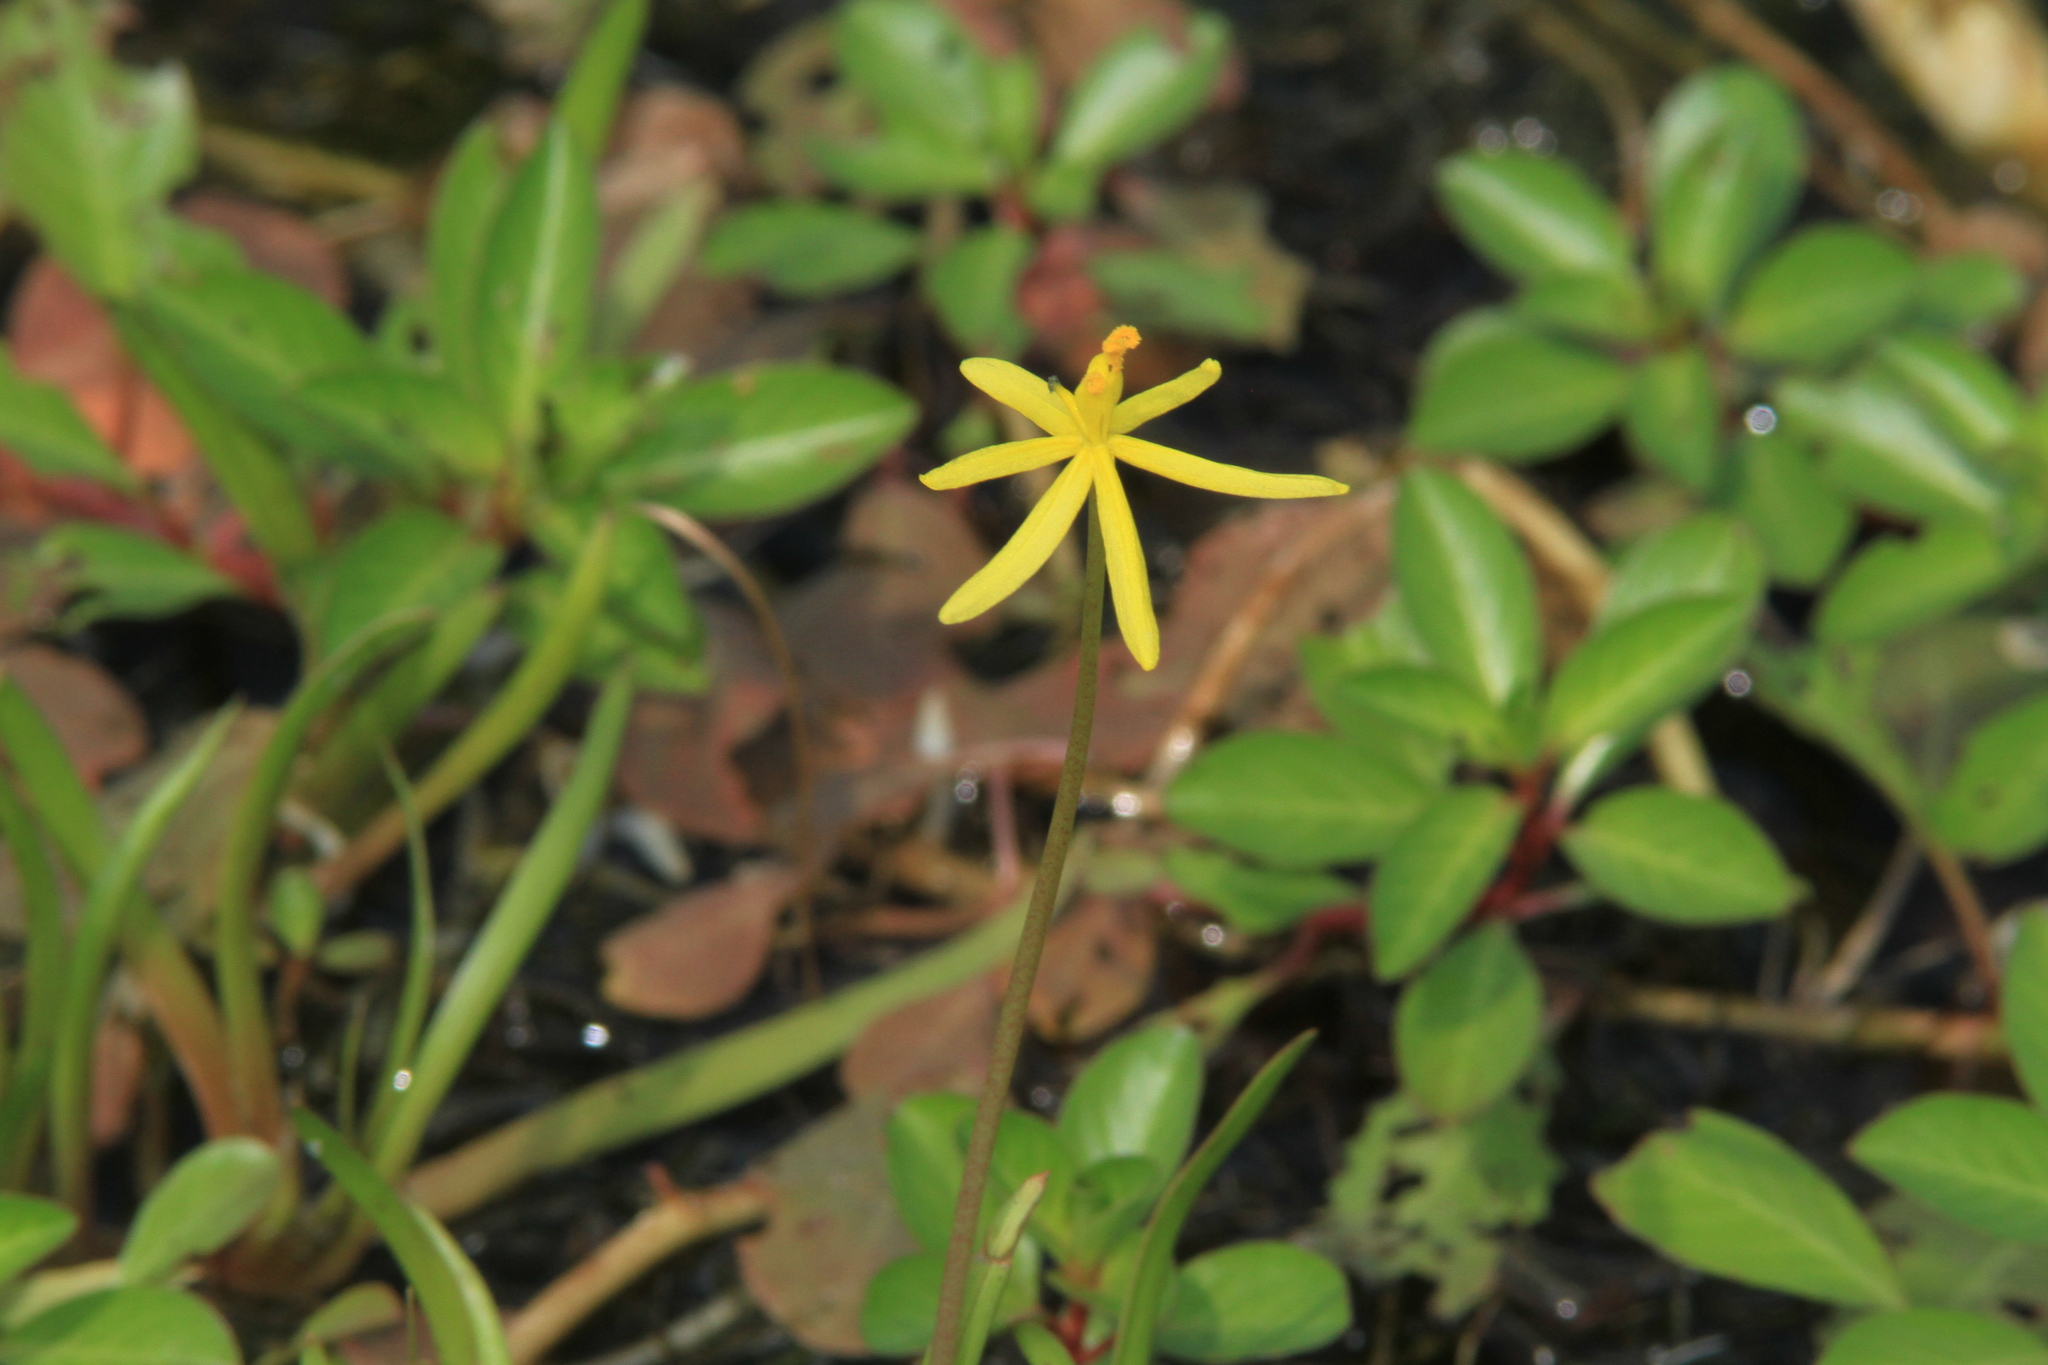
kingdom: Plantae
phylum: Tracheophyta
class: Liliopsida
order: Commelinales
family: Pontederiaceae
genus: Heteranthera
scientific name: Heteranthera dubia
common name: Grass-leaved mud plantain
